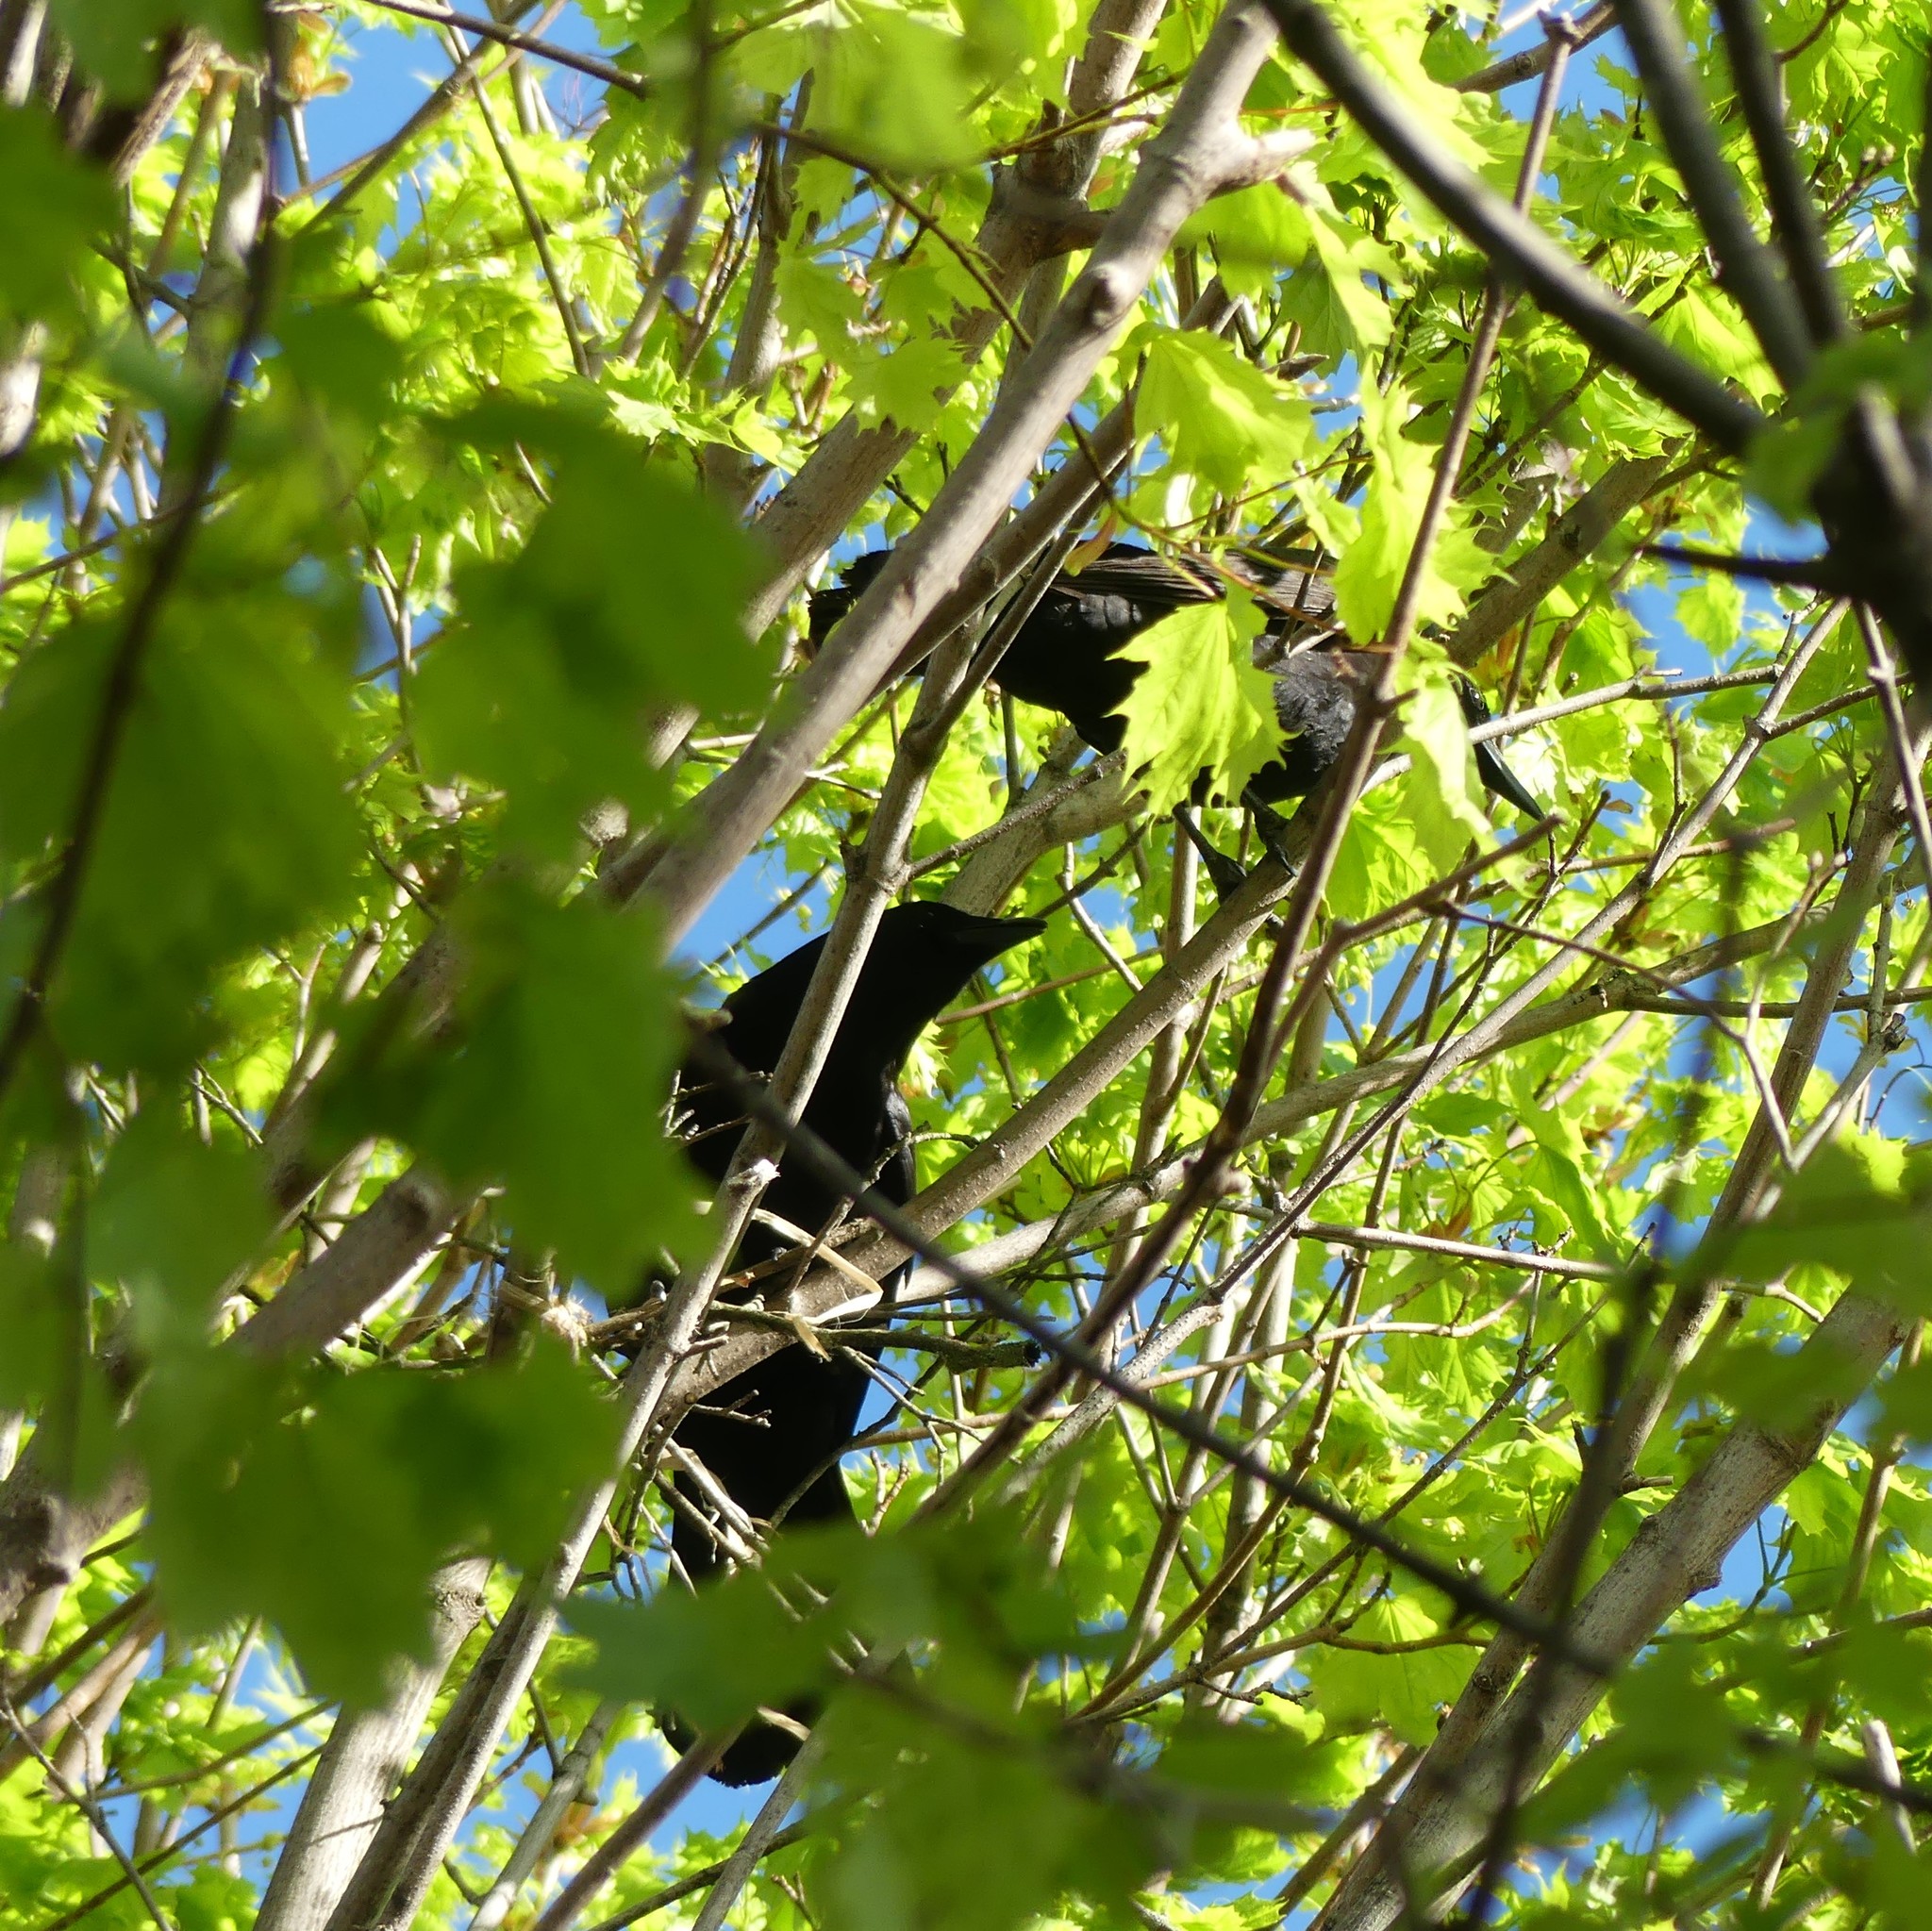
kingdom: Animalia
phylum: Chordata
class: Aves
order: Passeriformes
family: Corvidae
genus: Corvus
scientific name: Corvus brachyrhynchos
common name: American crow
